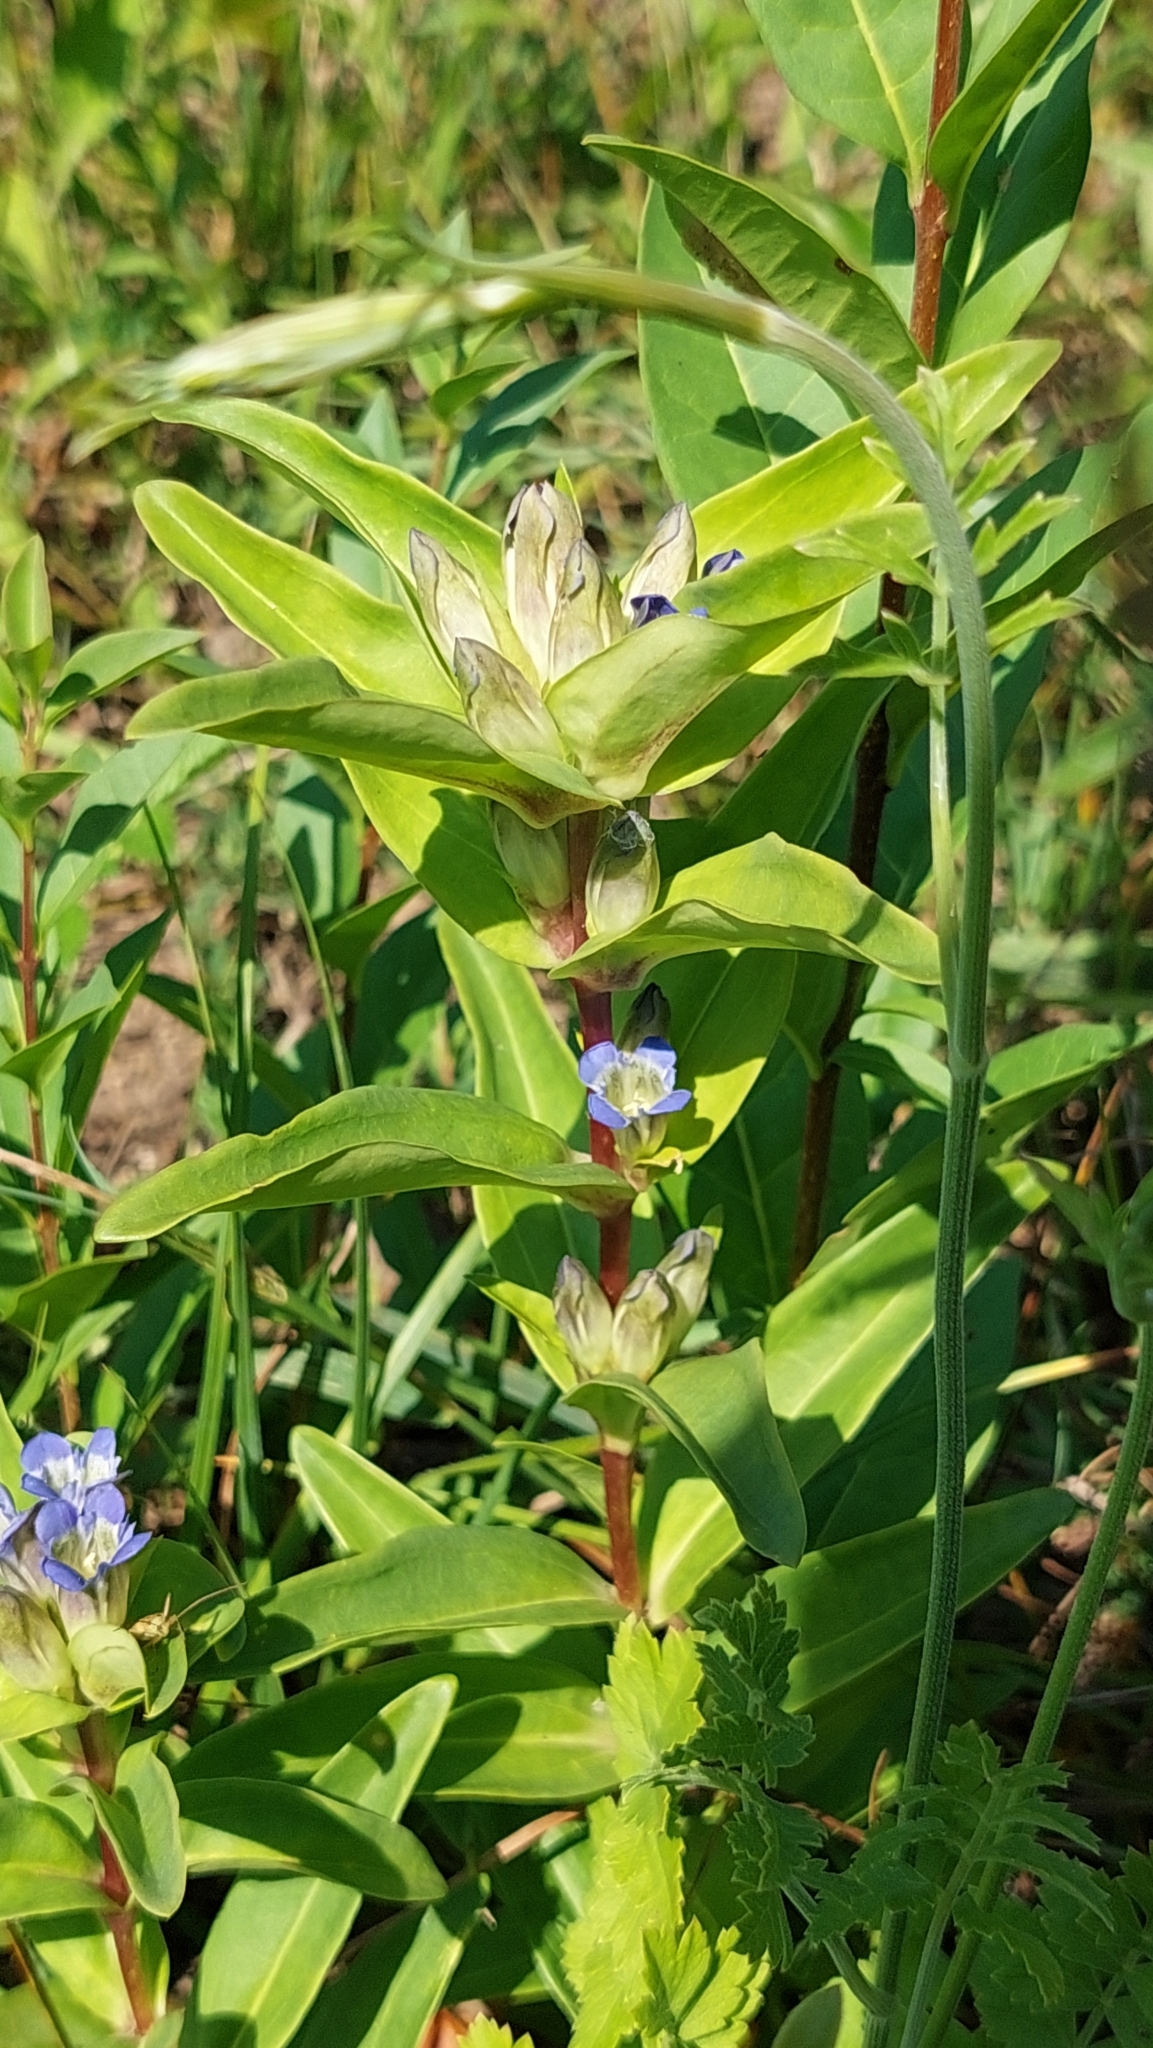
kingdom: Plantae
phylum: Tracheophyta
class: Magnoliopsida
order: Gentianales
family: Gentianaceae
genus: Gentiana
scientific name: Gentiana cruciata
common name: Cross gentian
